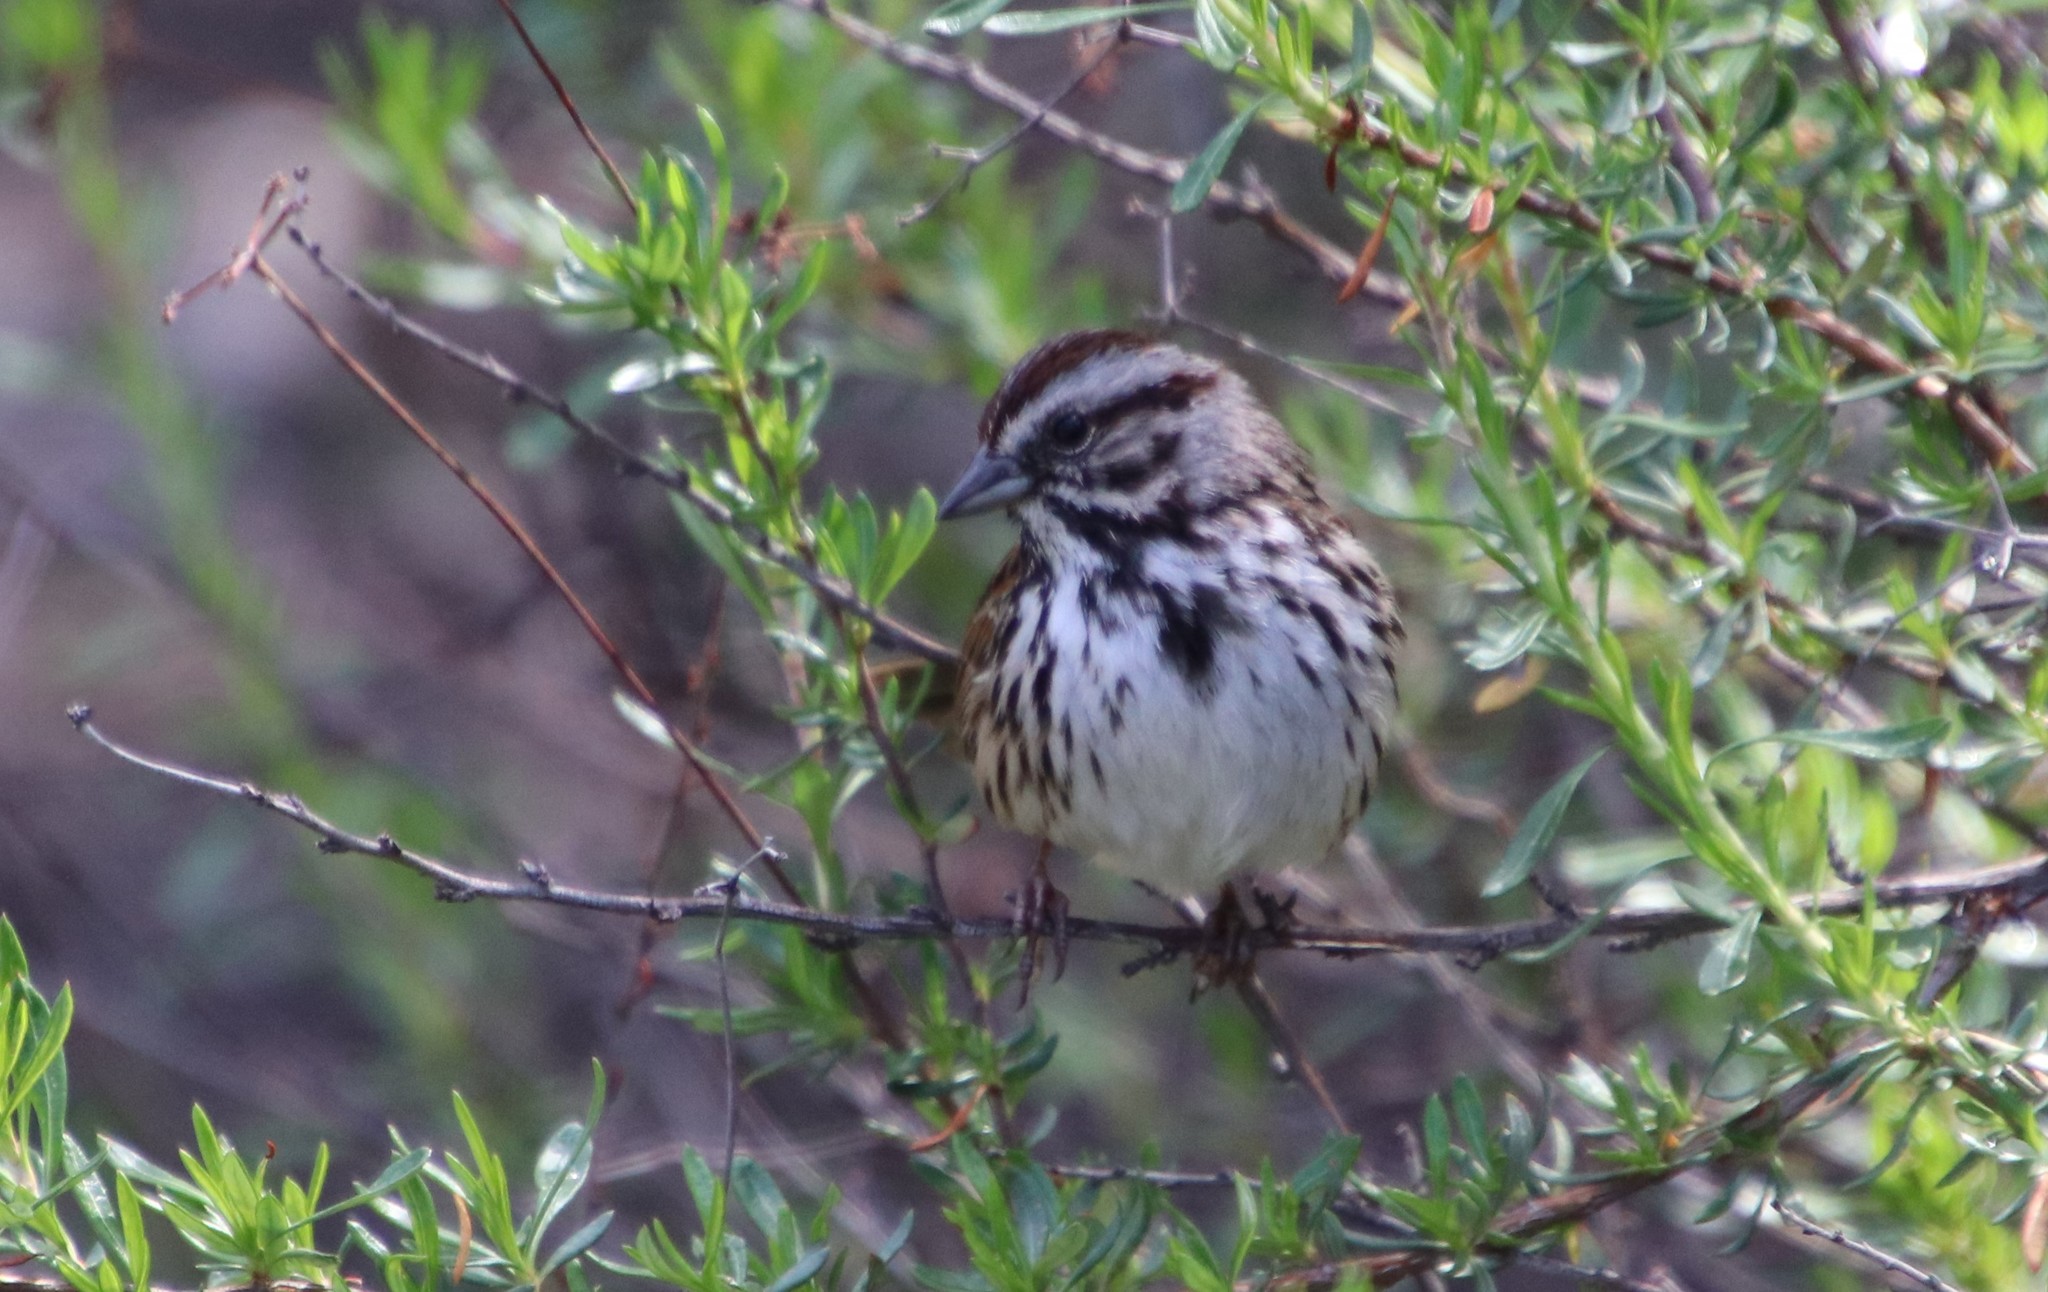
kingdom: Animalia
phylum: Chordata
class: Aves
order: Passeriformes
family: Passerellidae
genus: Melospiza
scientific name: Melospiza melodia
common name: Song sparrow
